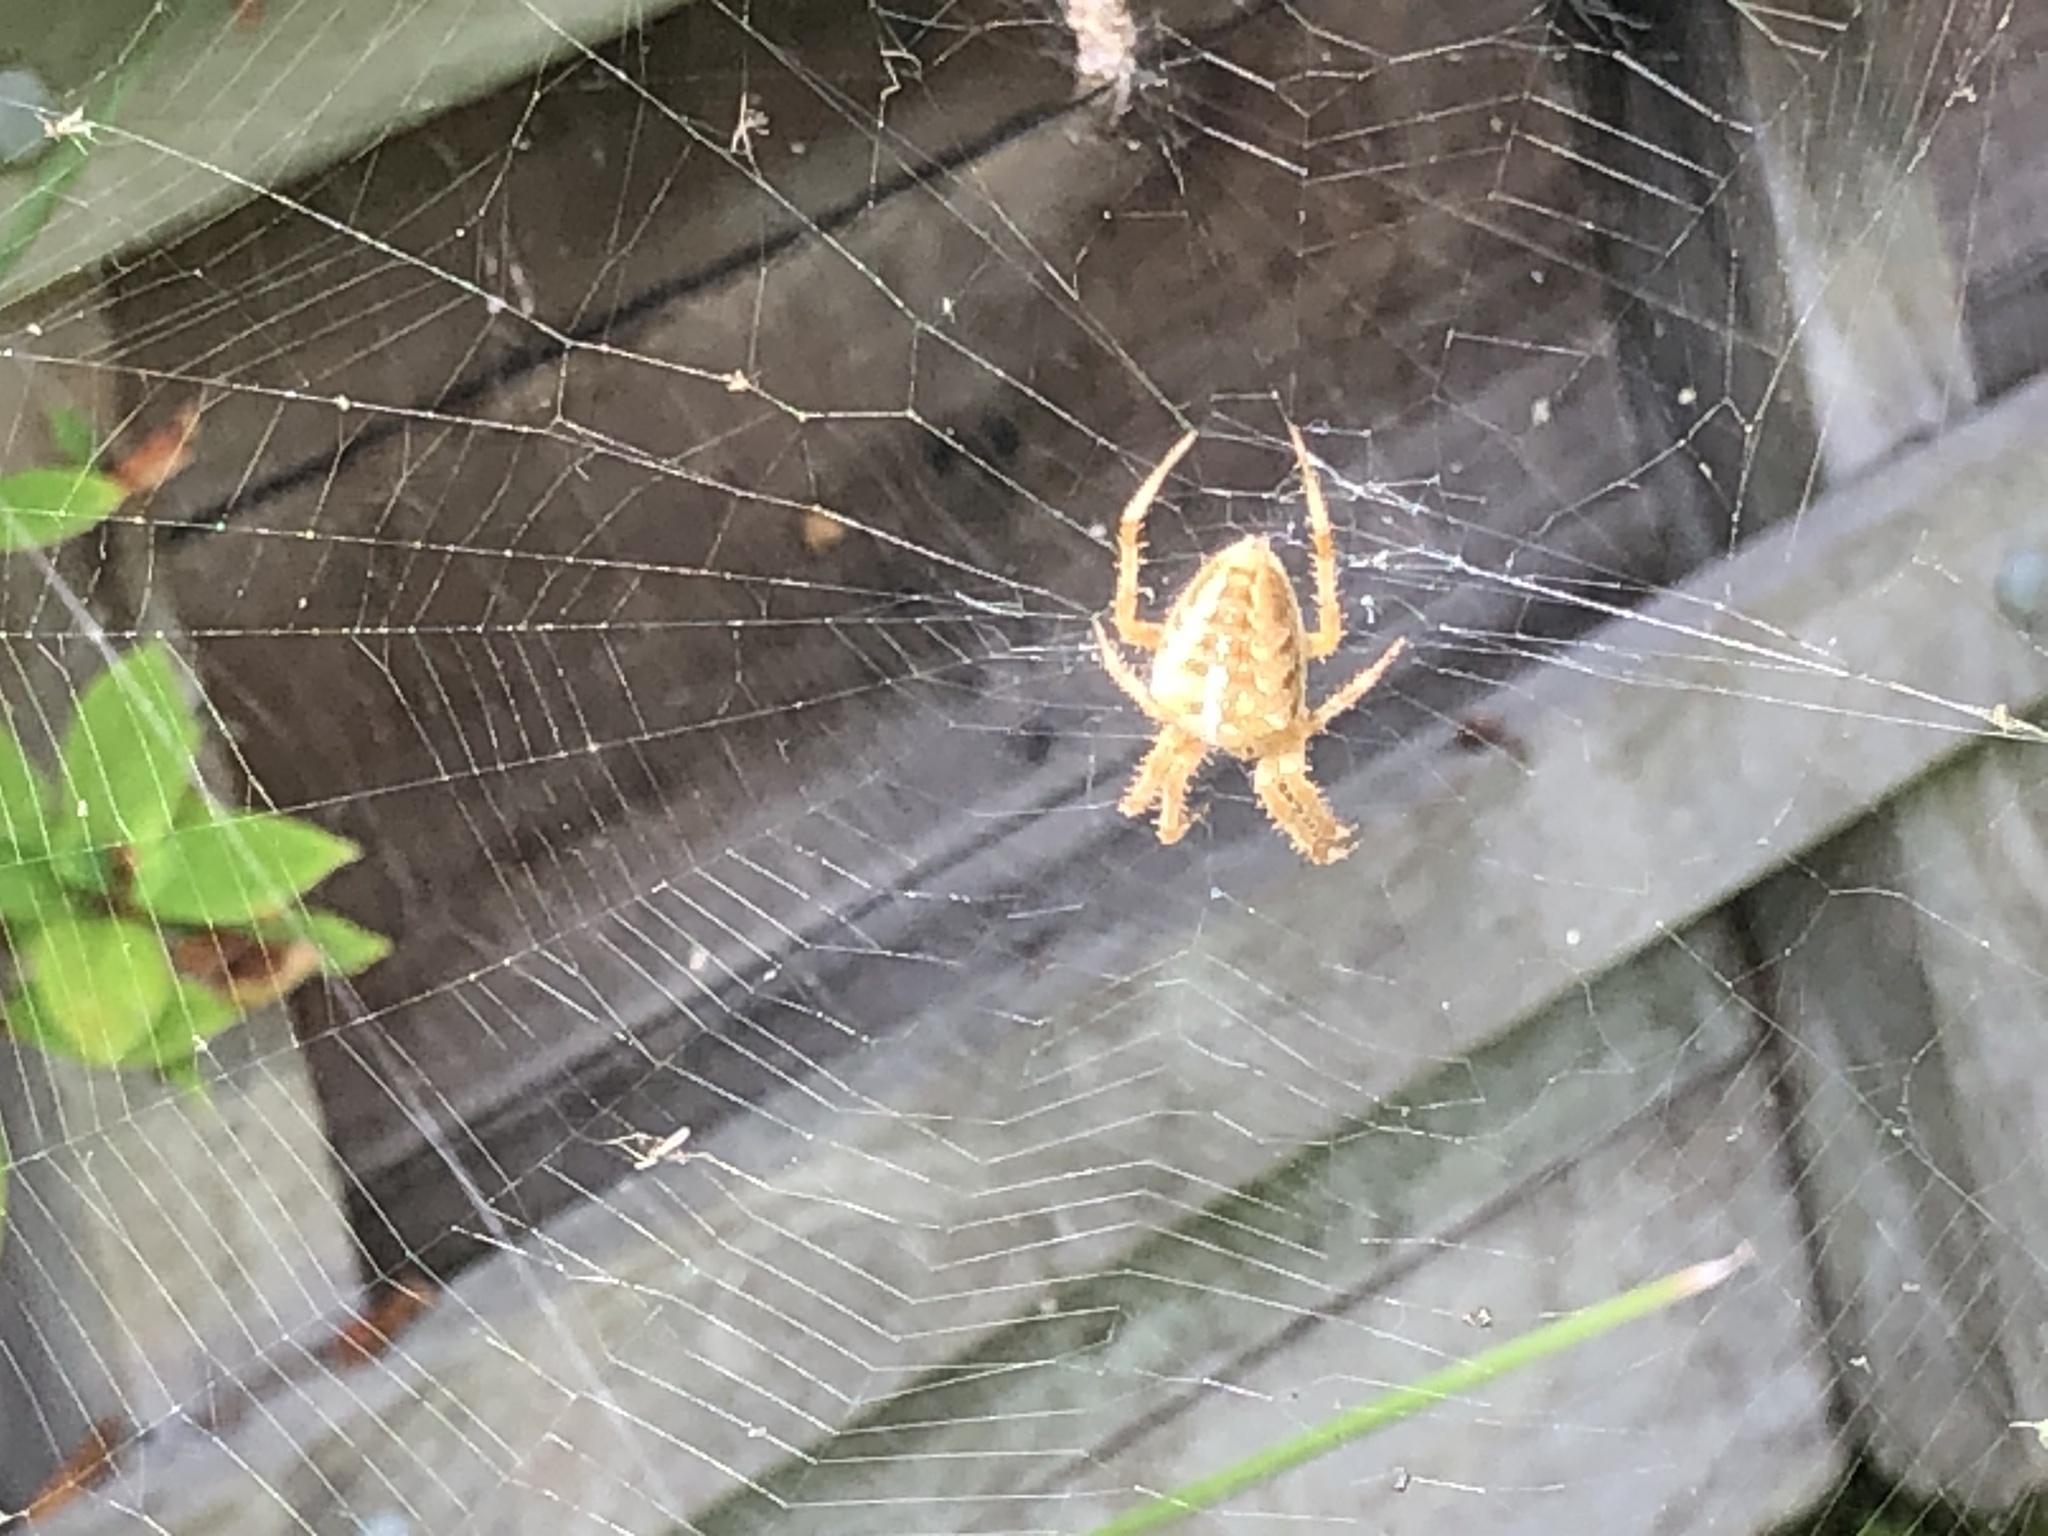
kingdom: Animalia
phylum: Arthropoda
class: Arachnida
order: Araneae
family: Araneidae
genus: Araneus
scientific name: Araneus diadematus
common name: Cross orbweaver
